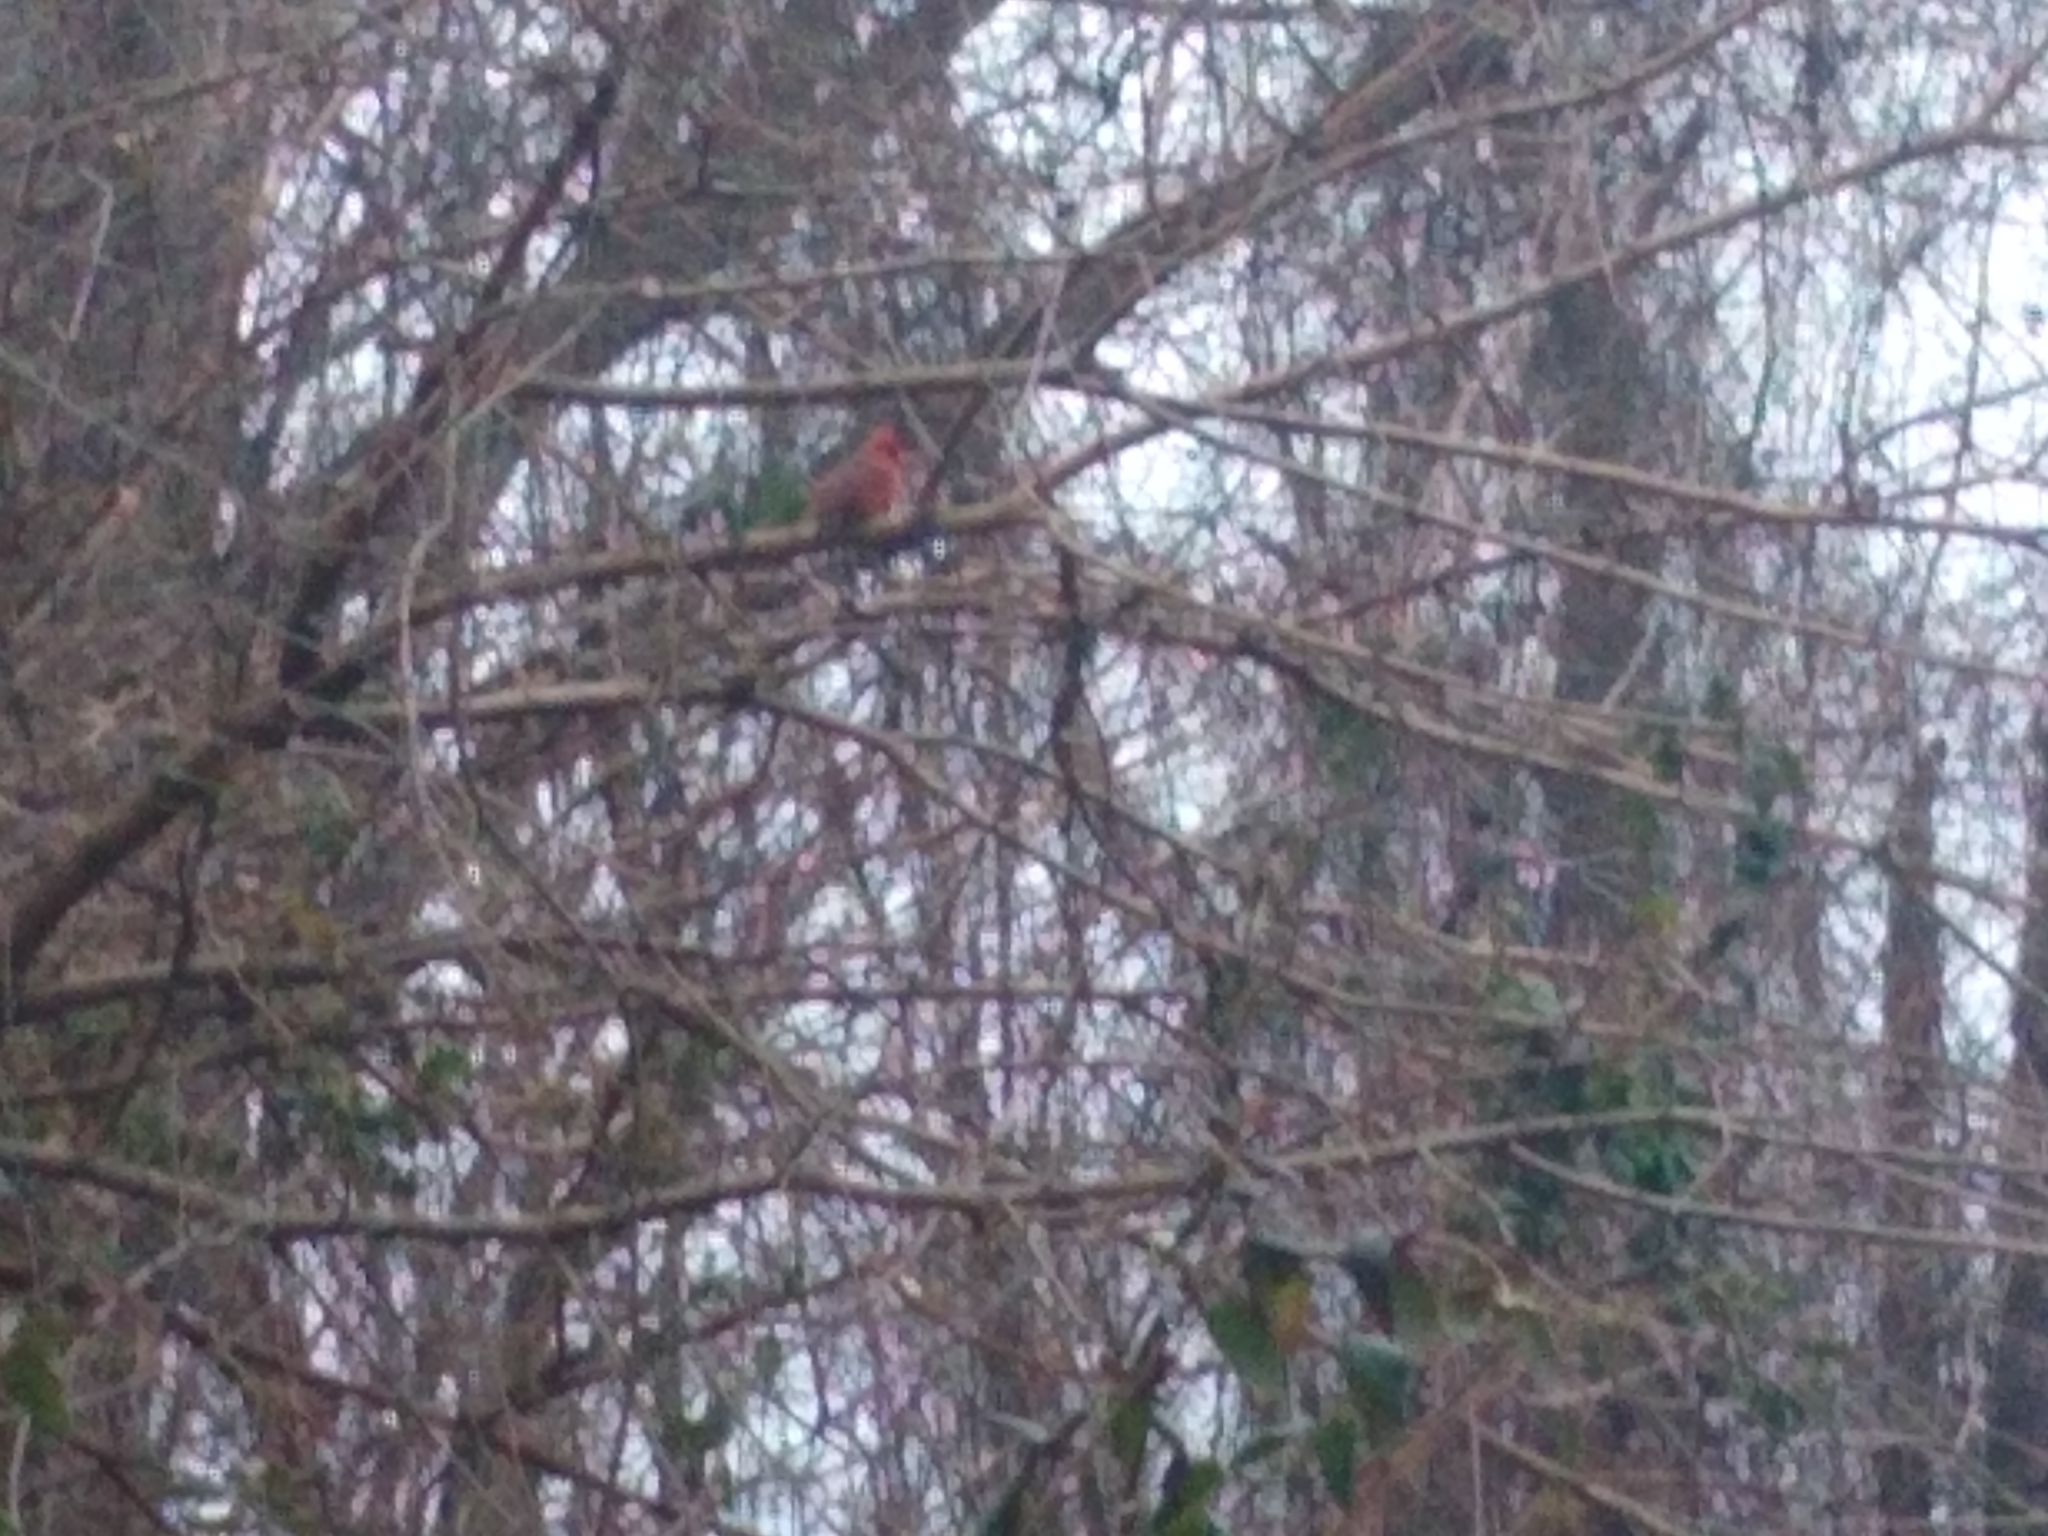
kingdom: Animalia
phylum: Chordata
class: Aves
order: Passeriformes
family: Cardinalidae
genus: Cardinalis
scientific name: Cardinalis cardinalis
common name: Northern cardinal
